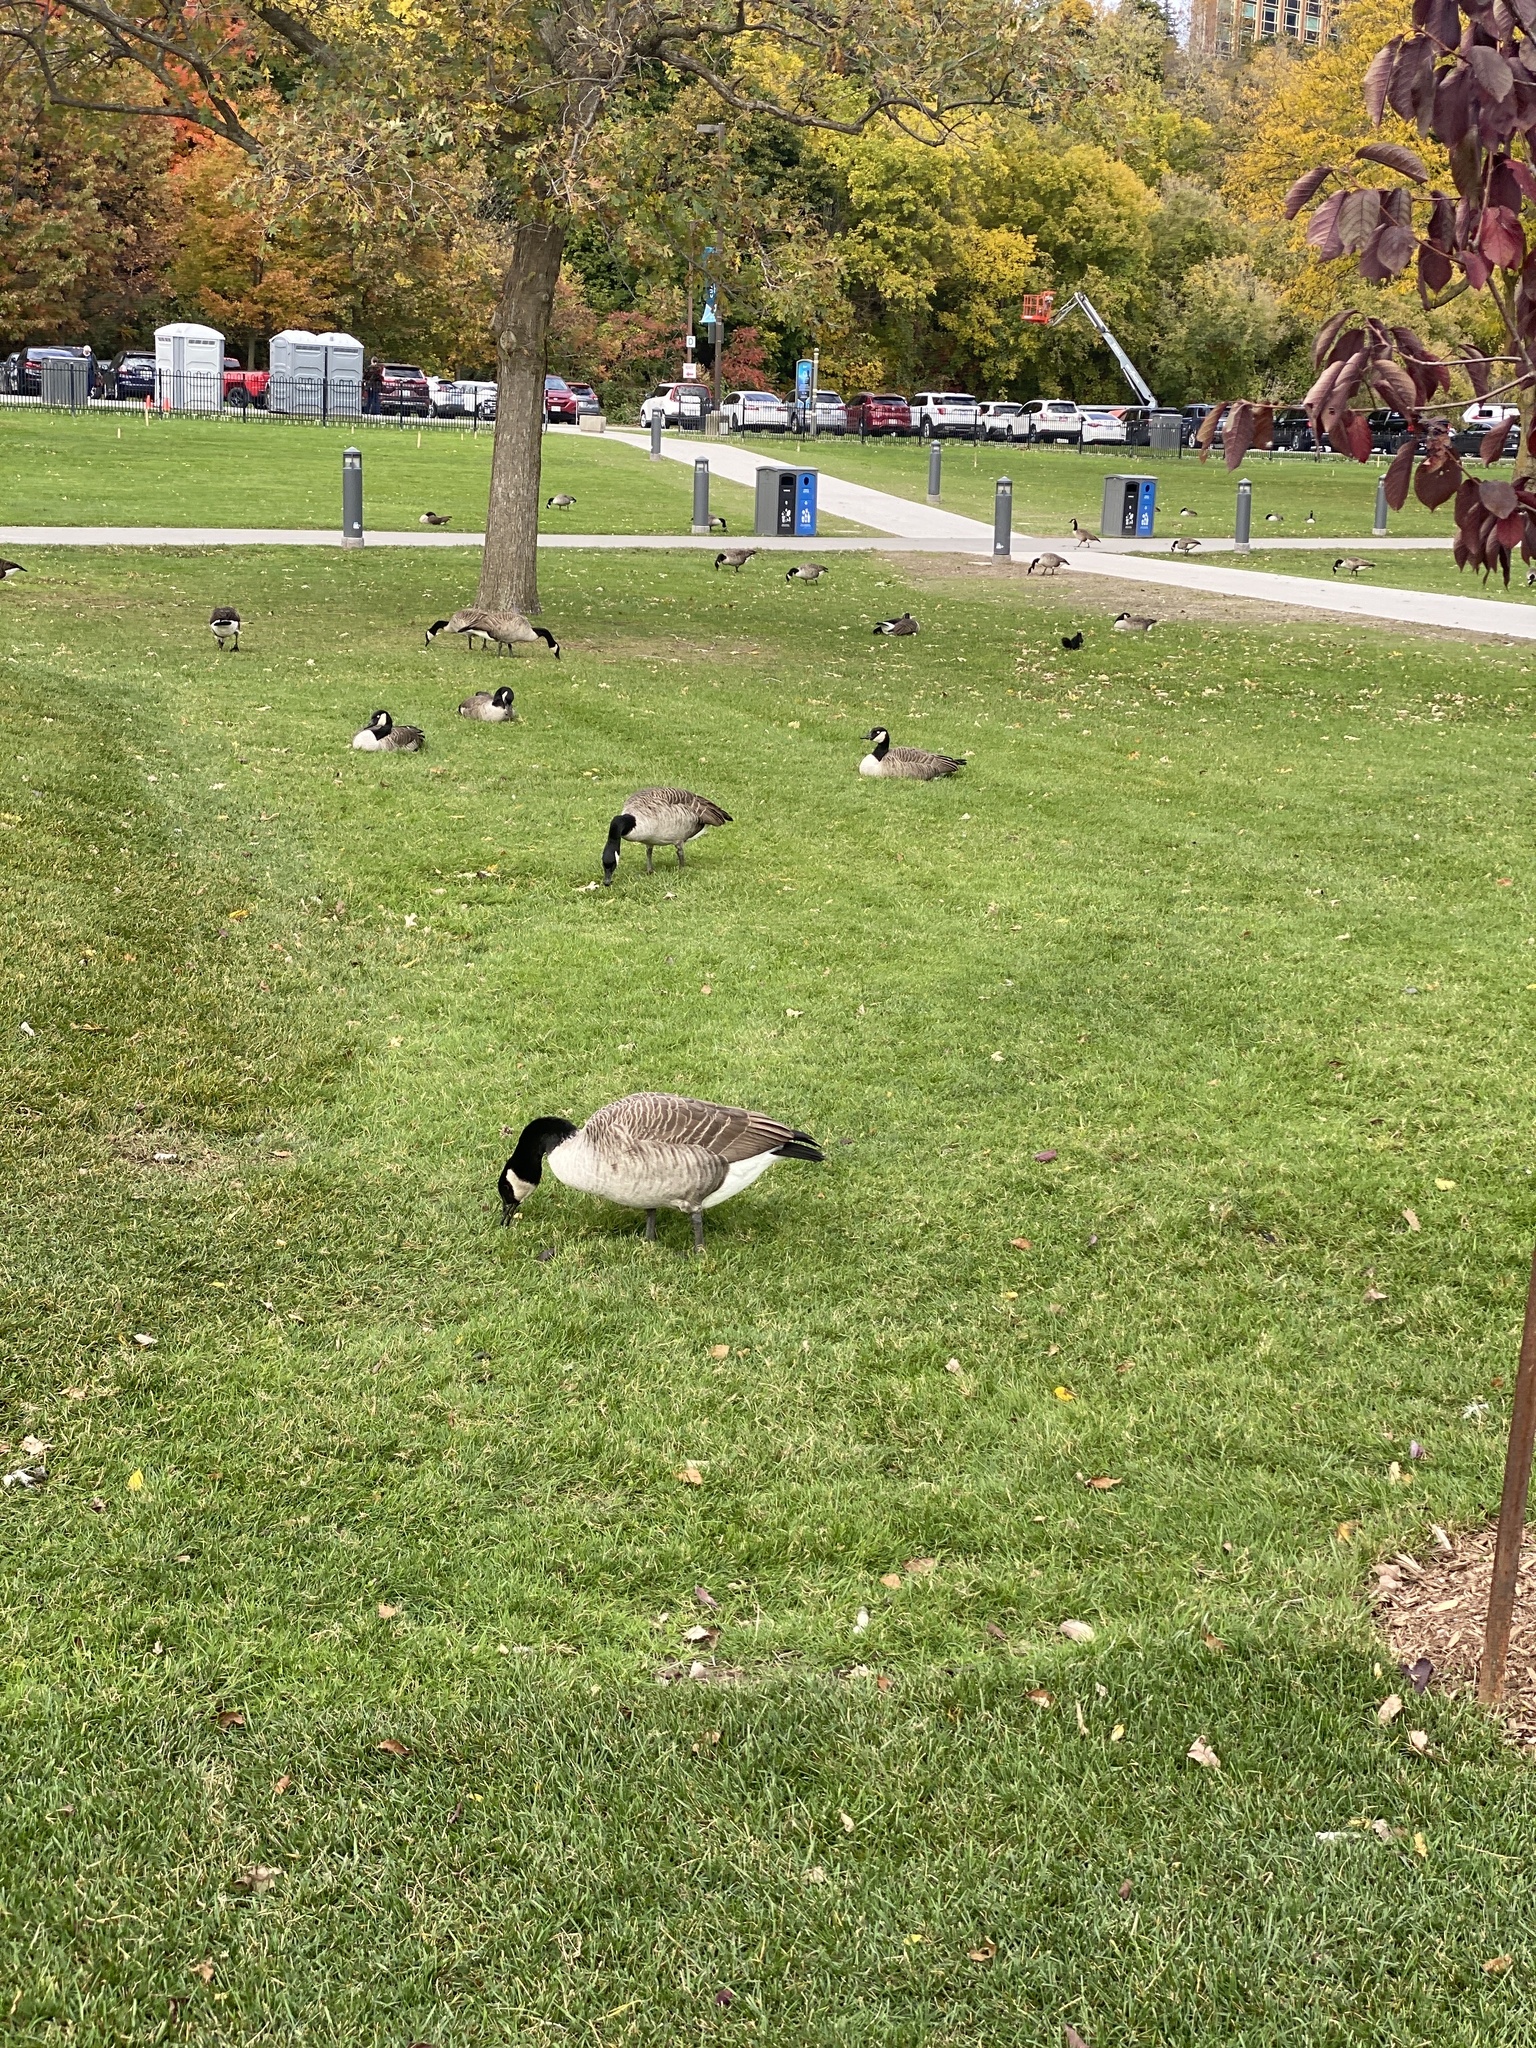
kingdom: Animalia
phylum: Chordata
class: Aves
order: Anseriformes
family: Anatidae
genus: Branta
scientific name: Branta canadensis
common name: Canada goose
